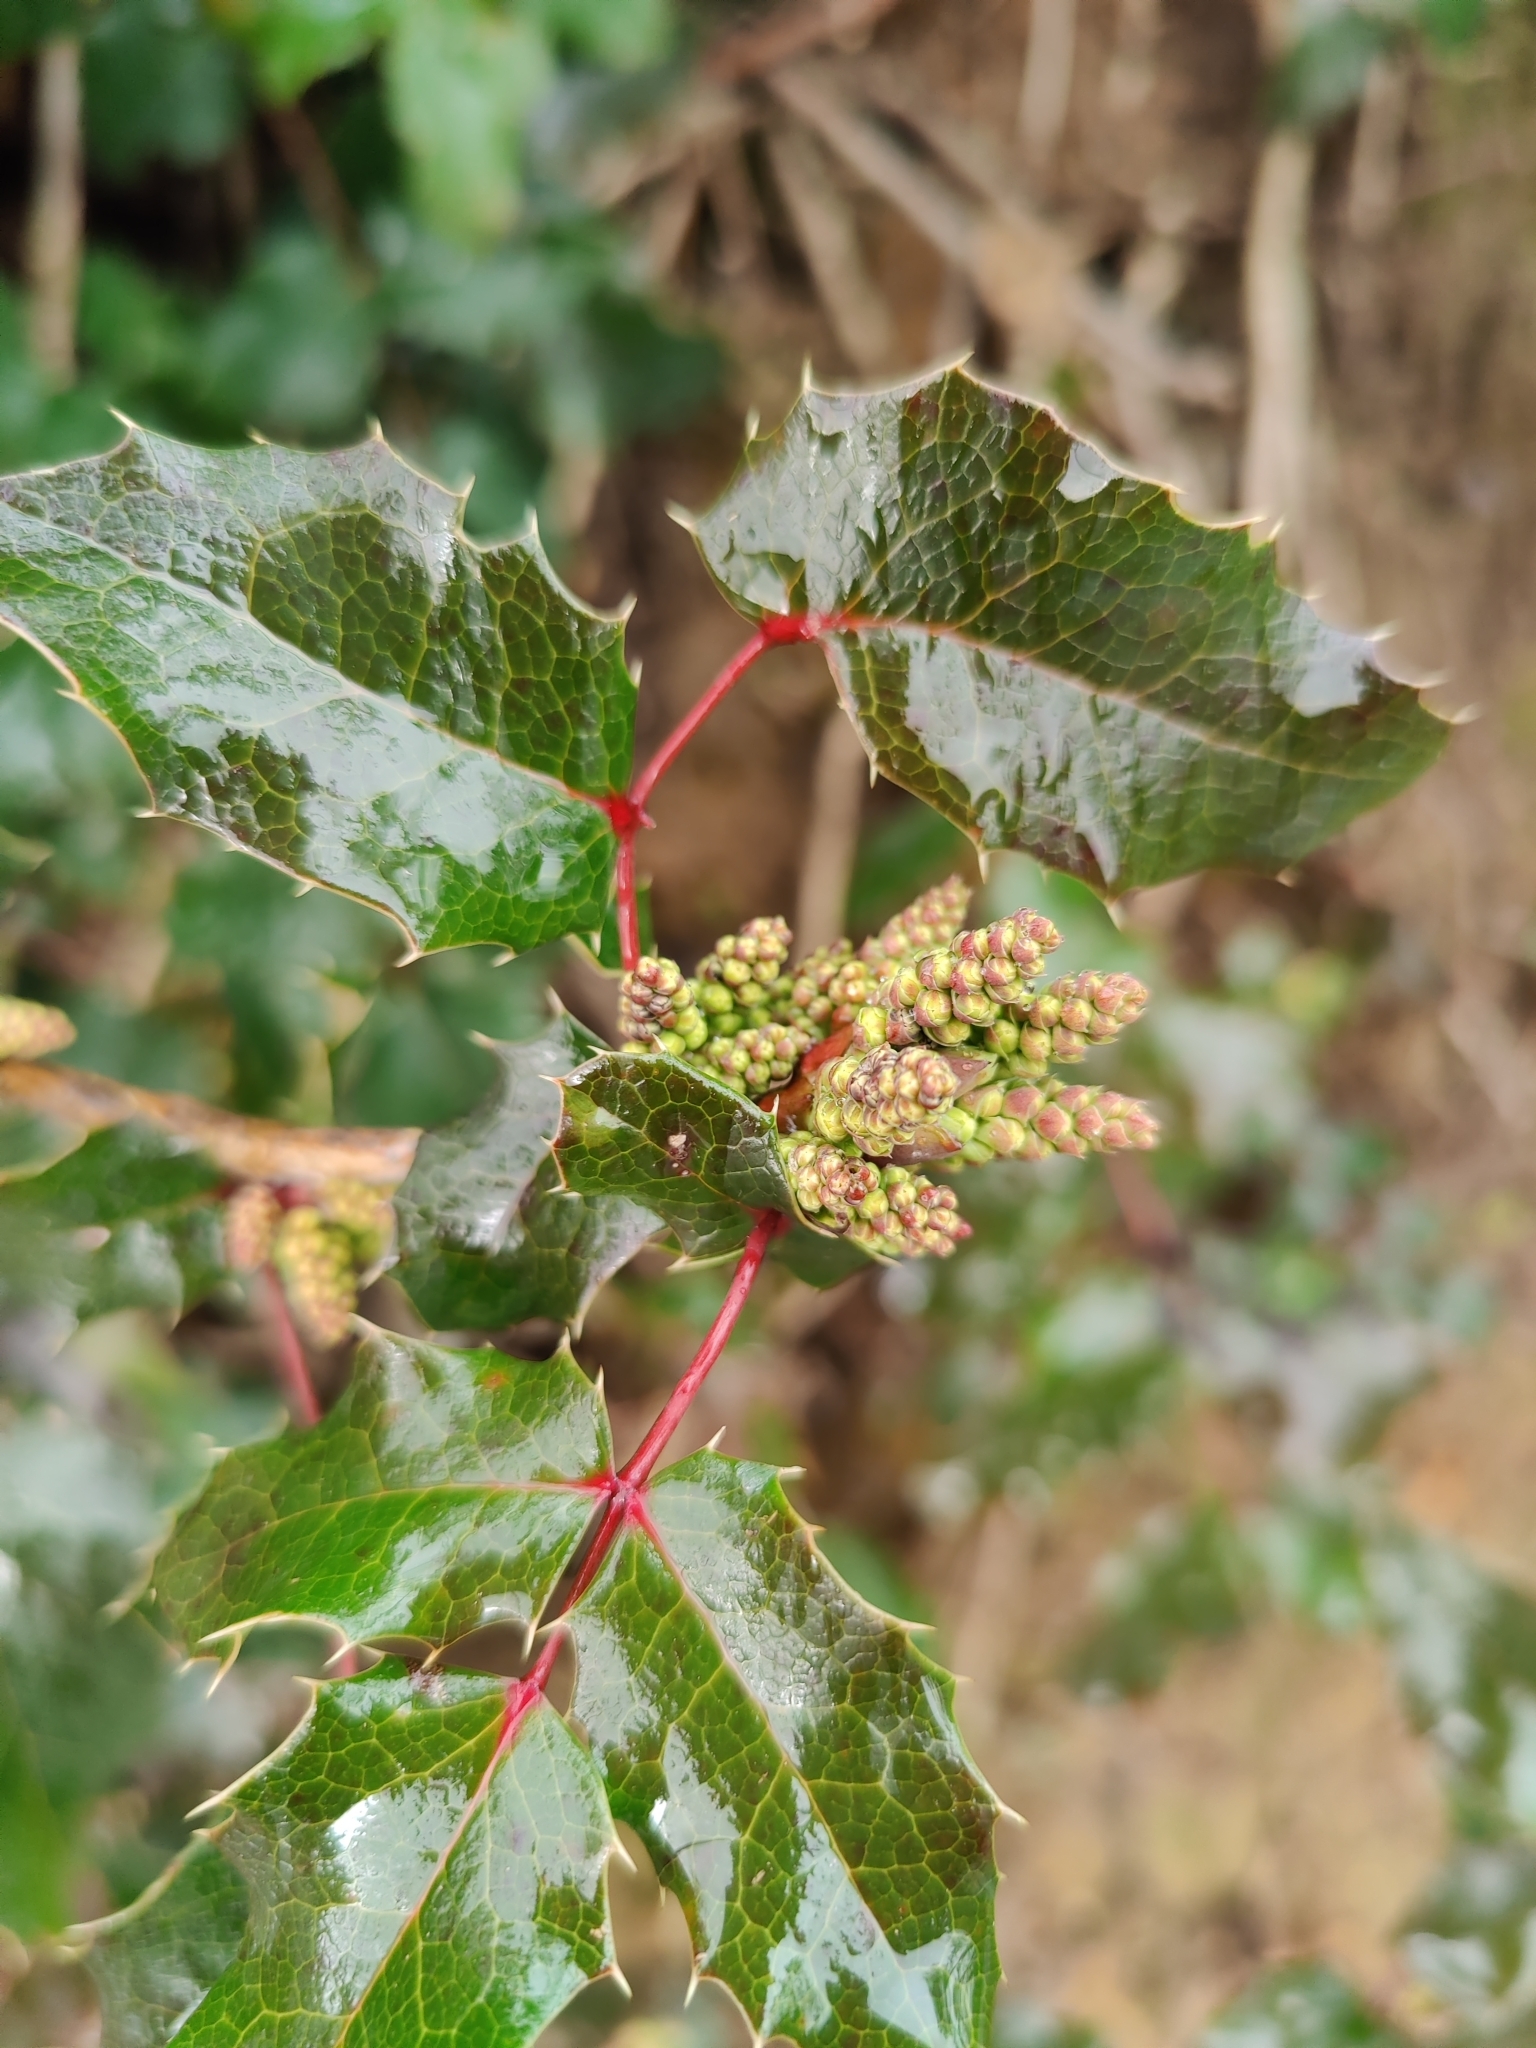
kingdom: Plantae
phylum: Tracheophyta
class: Magnoliopsida
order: Ranunculales
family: Berberidaceae
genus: Mahonia
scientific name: Mahonia aquifolium
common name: Oregon-grape
